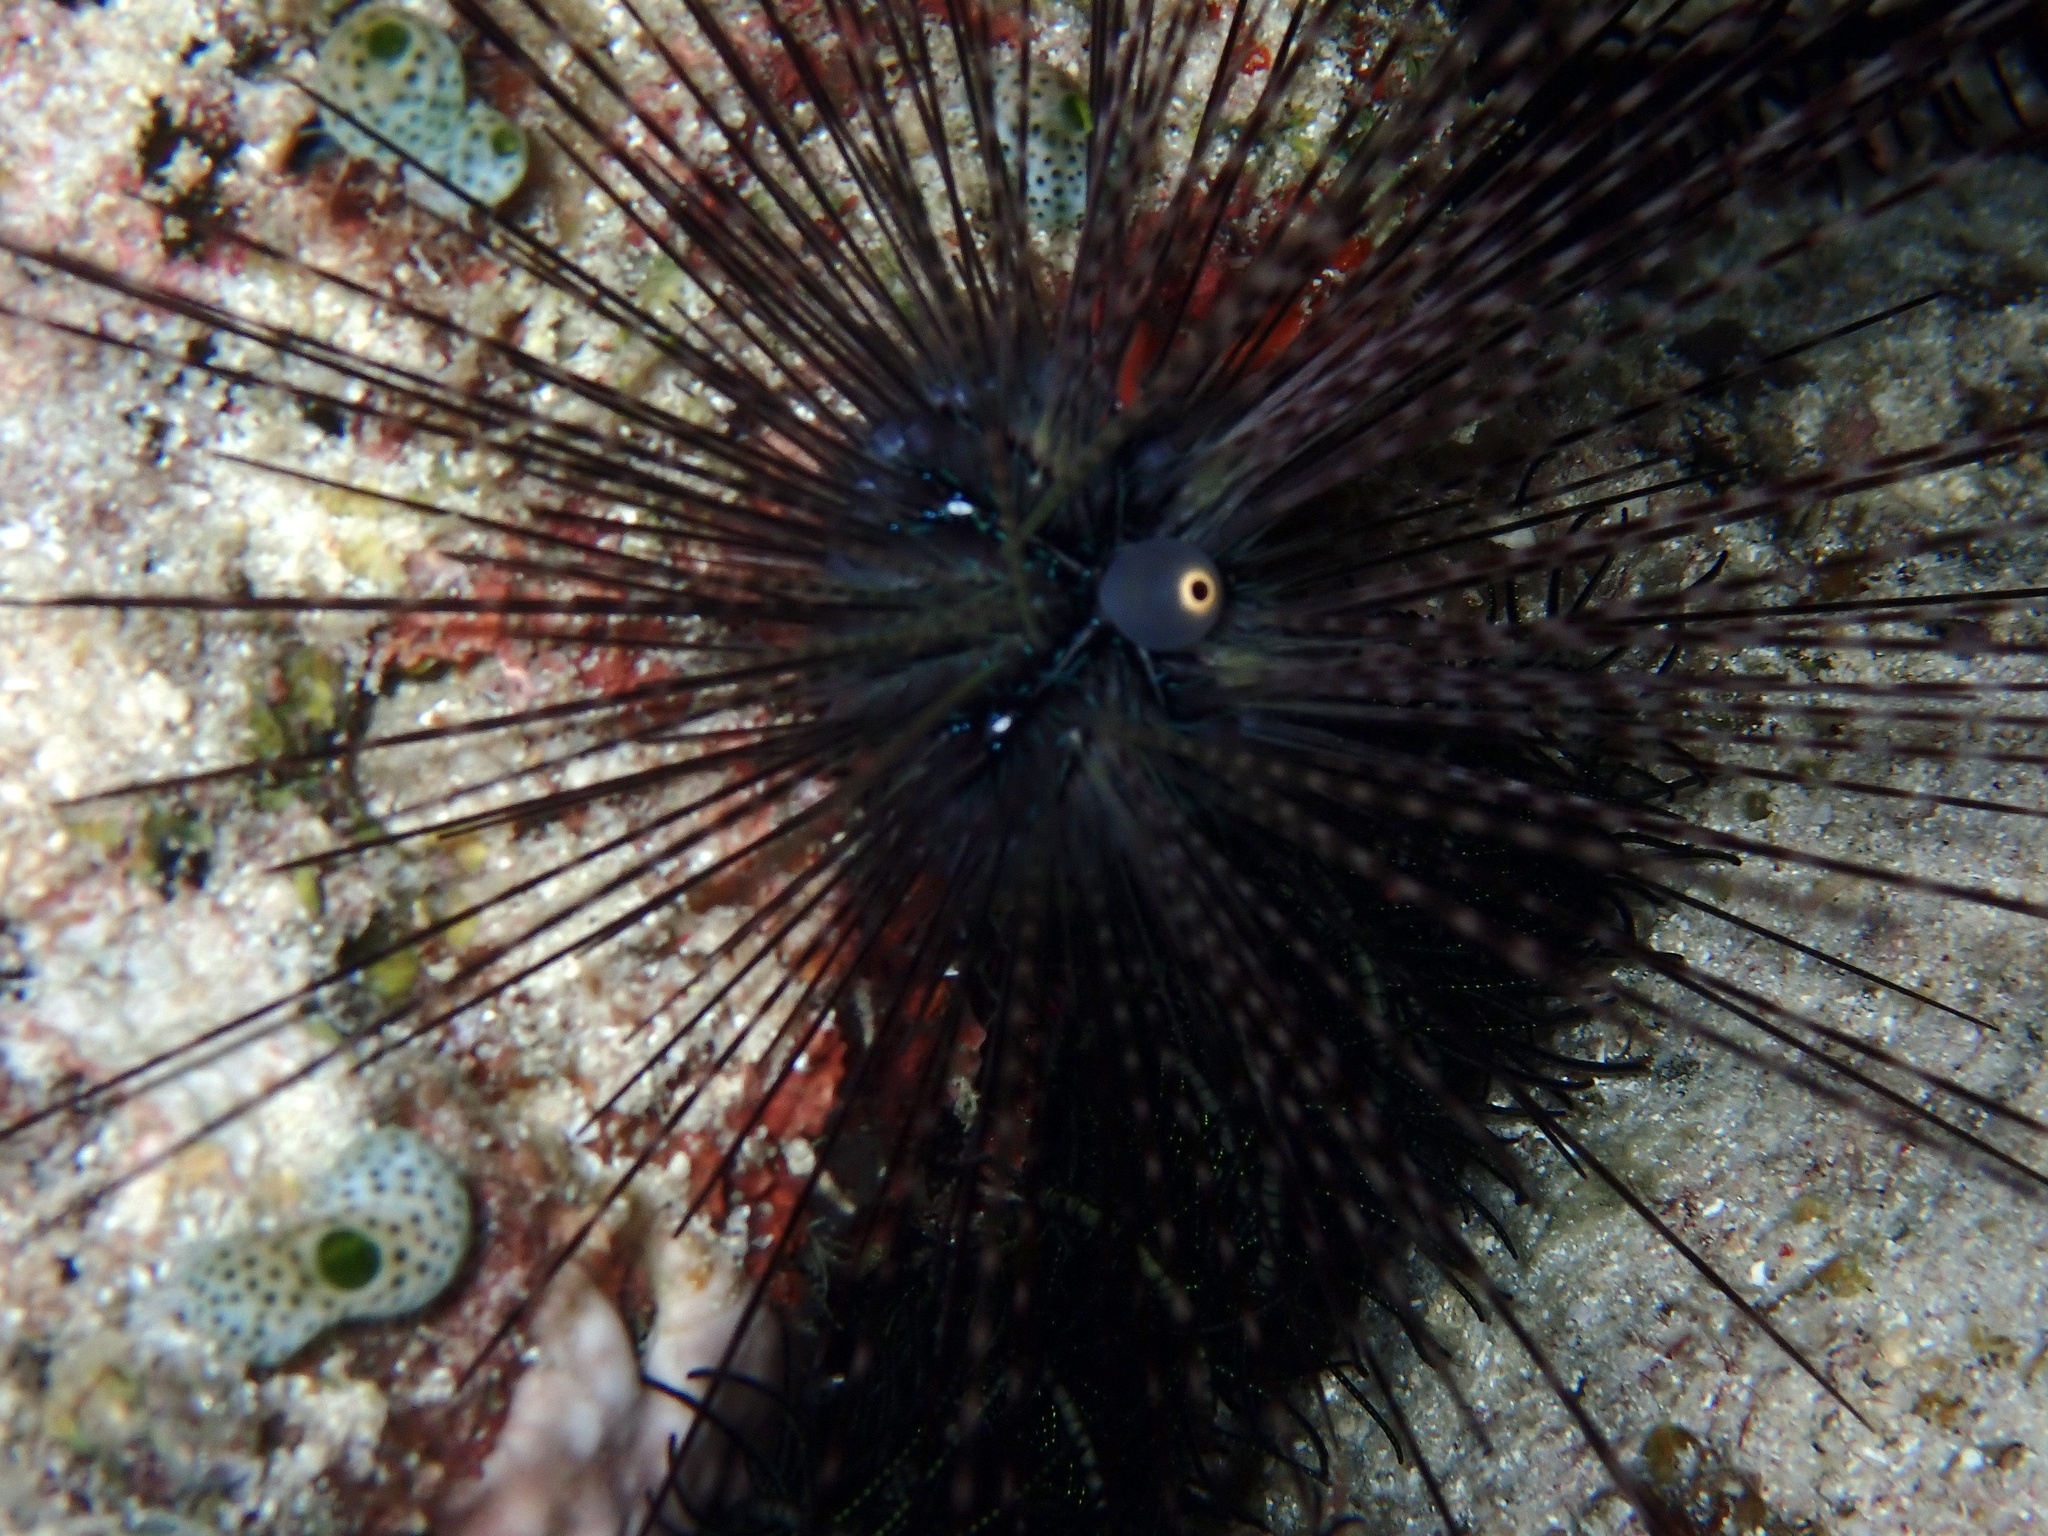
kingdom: Animalia
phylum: Echinodermata
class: Echinoidea
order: Diadematoida
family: Diadematidae
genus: Diadema
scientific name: Diadema setosum
